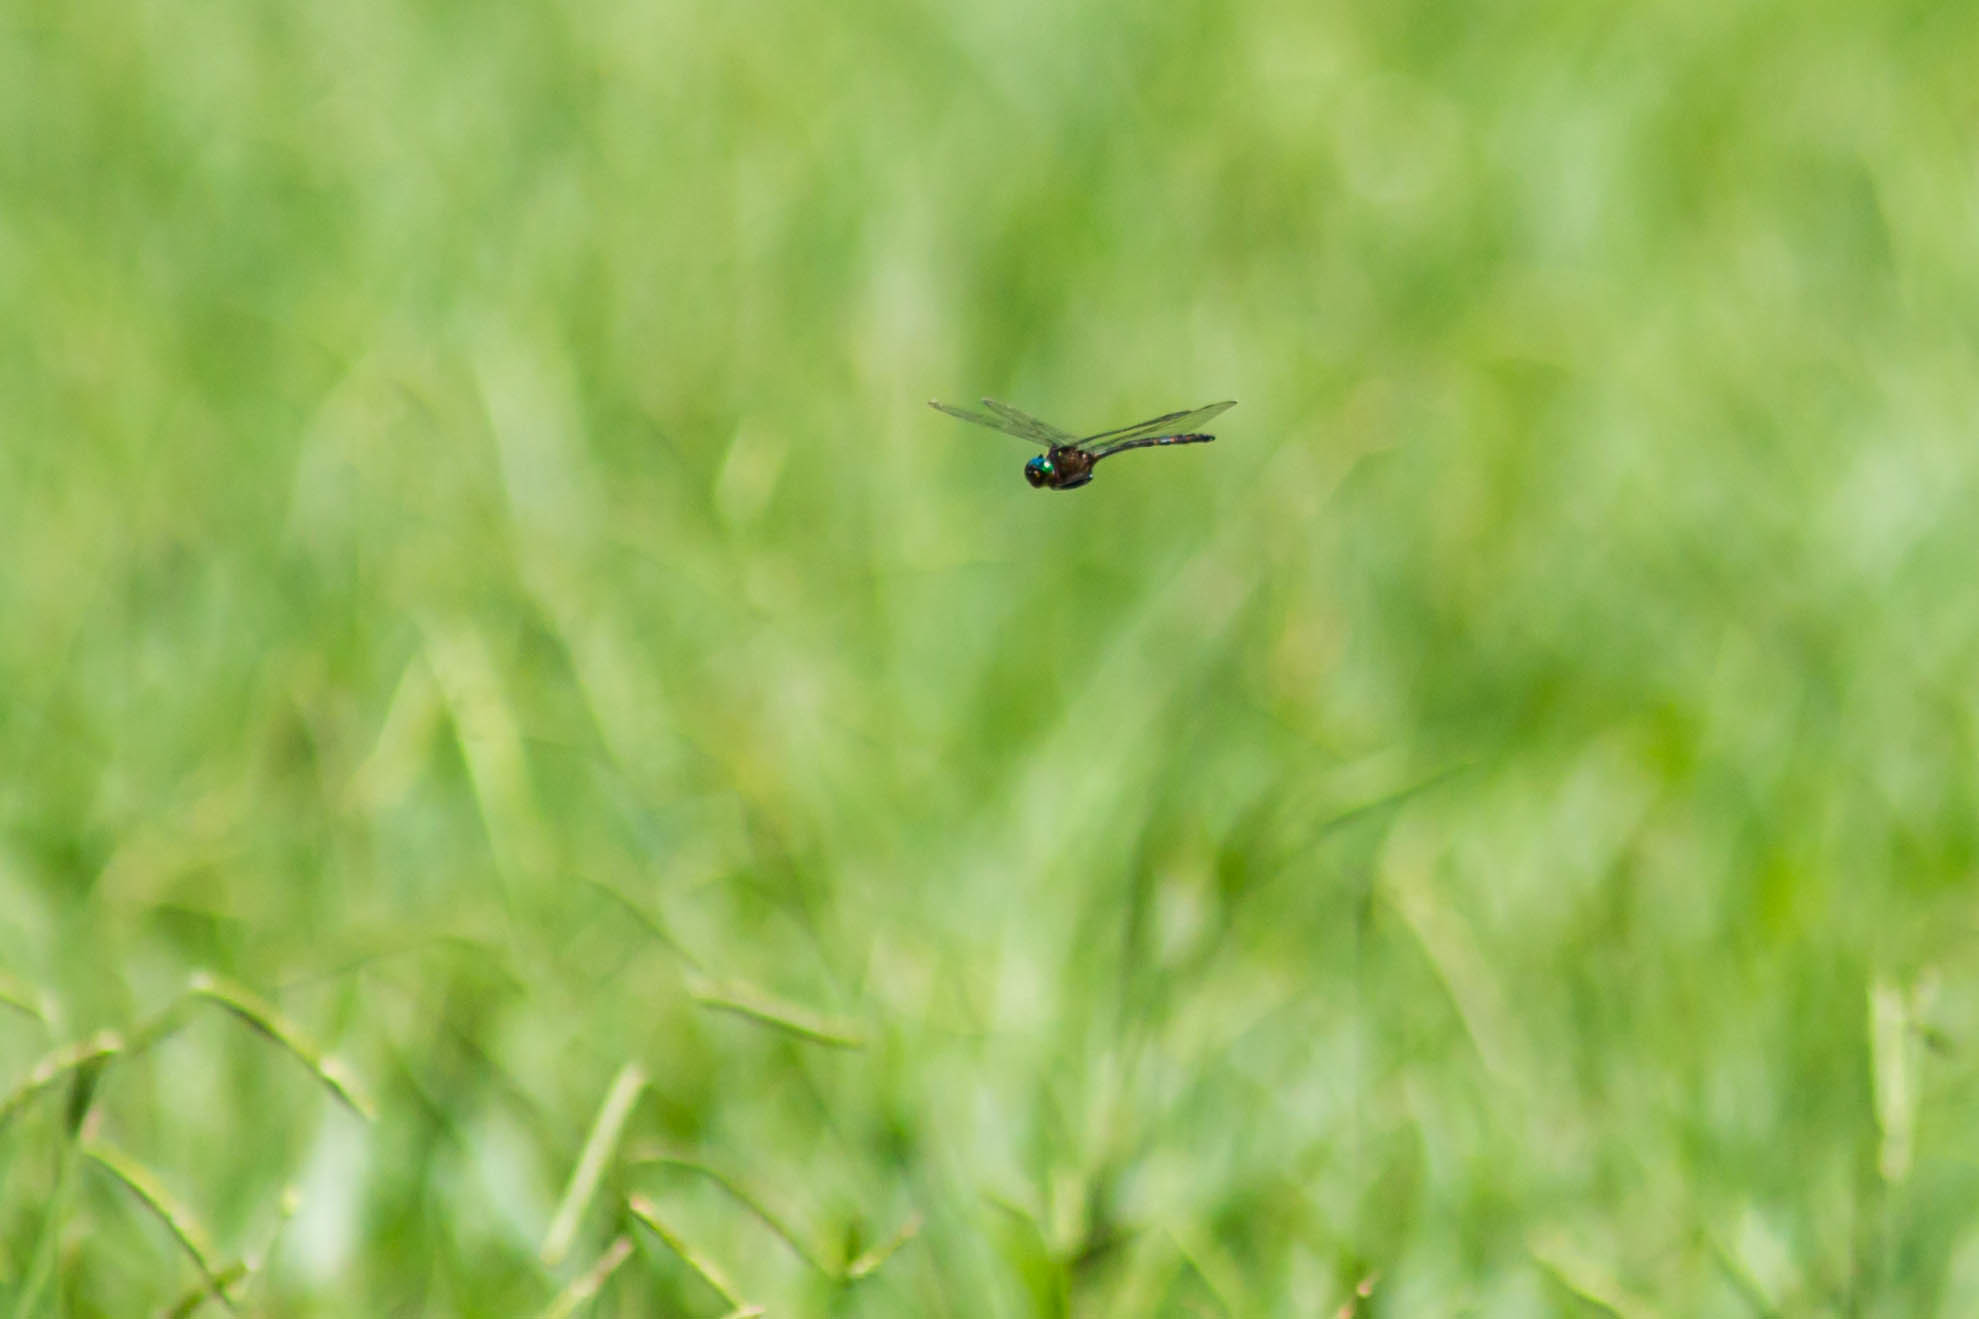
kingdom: Animalia
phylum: Arthropoda
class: Insecta
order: Odonata
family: Corduliidae
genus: Somatochlora
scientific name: Somatochlora linearis
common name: Mocha emerald
